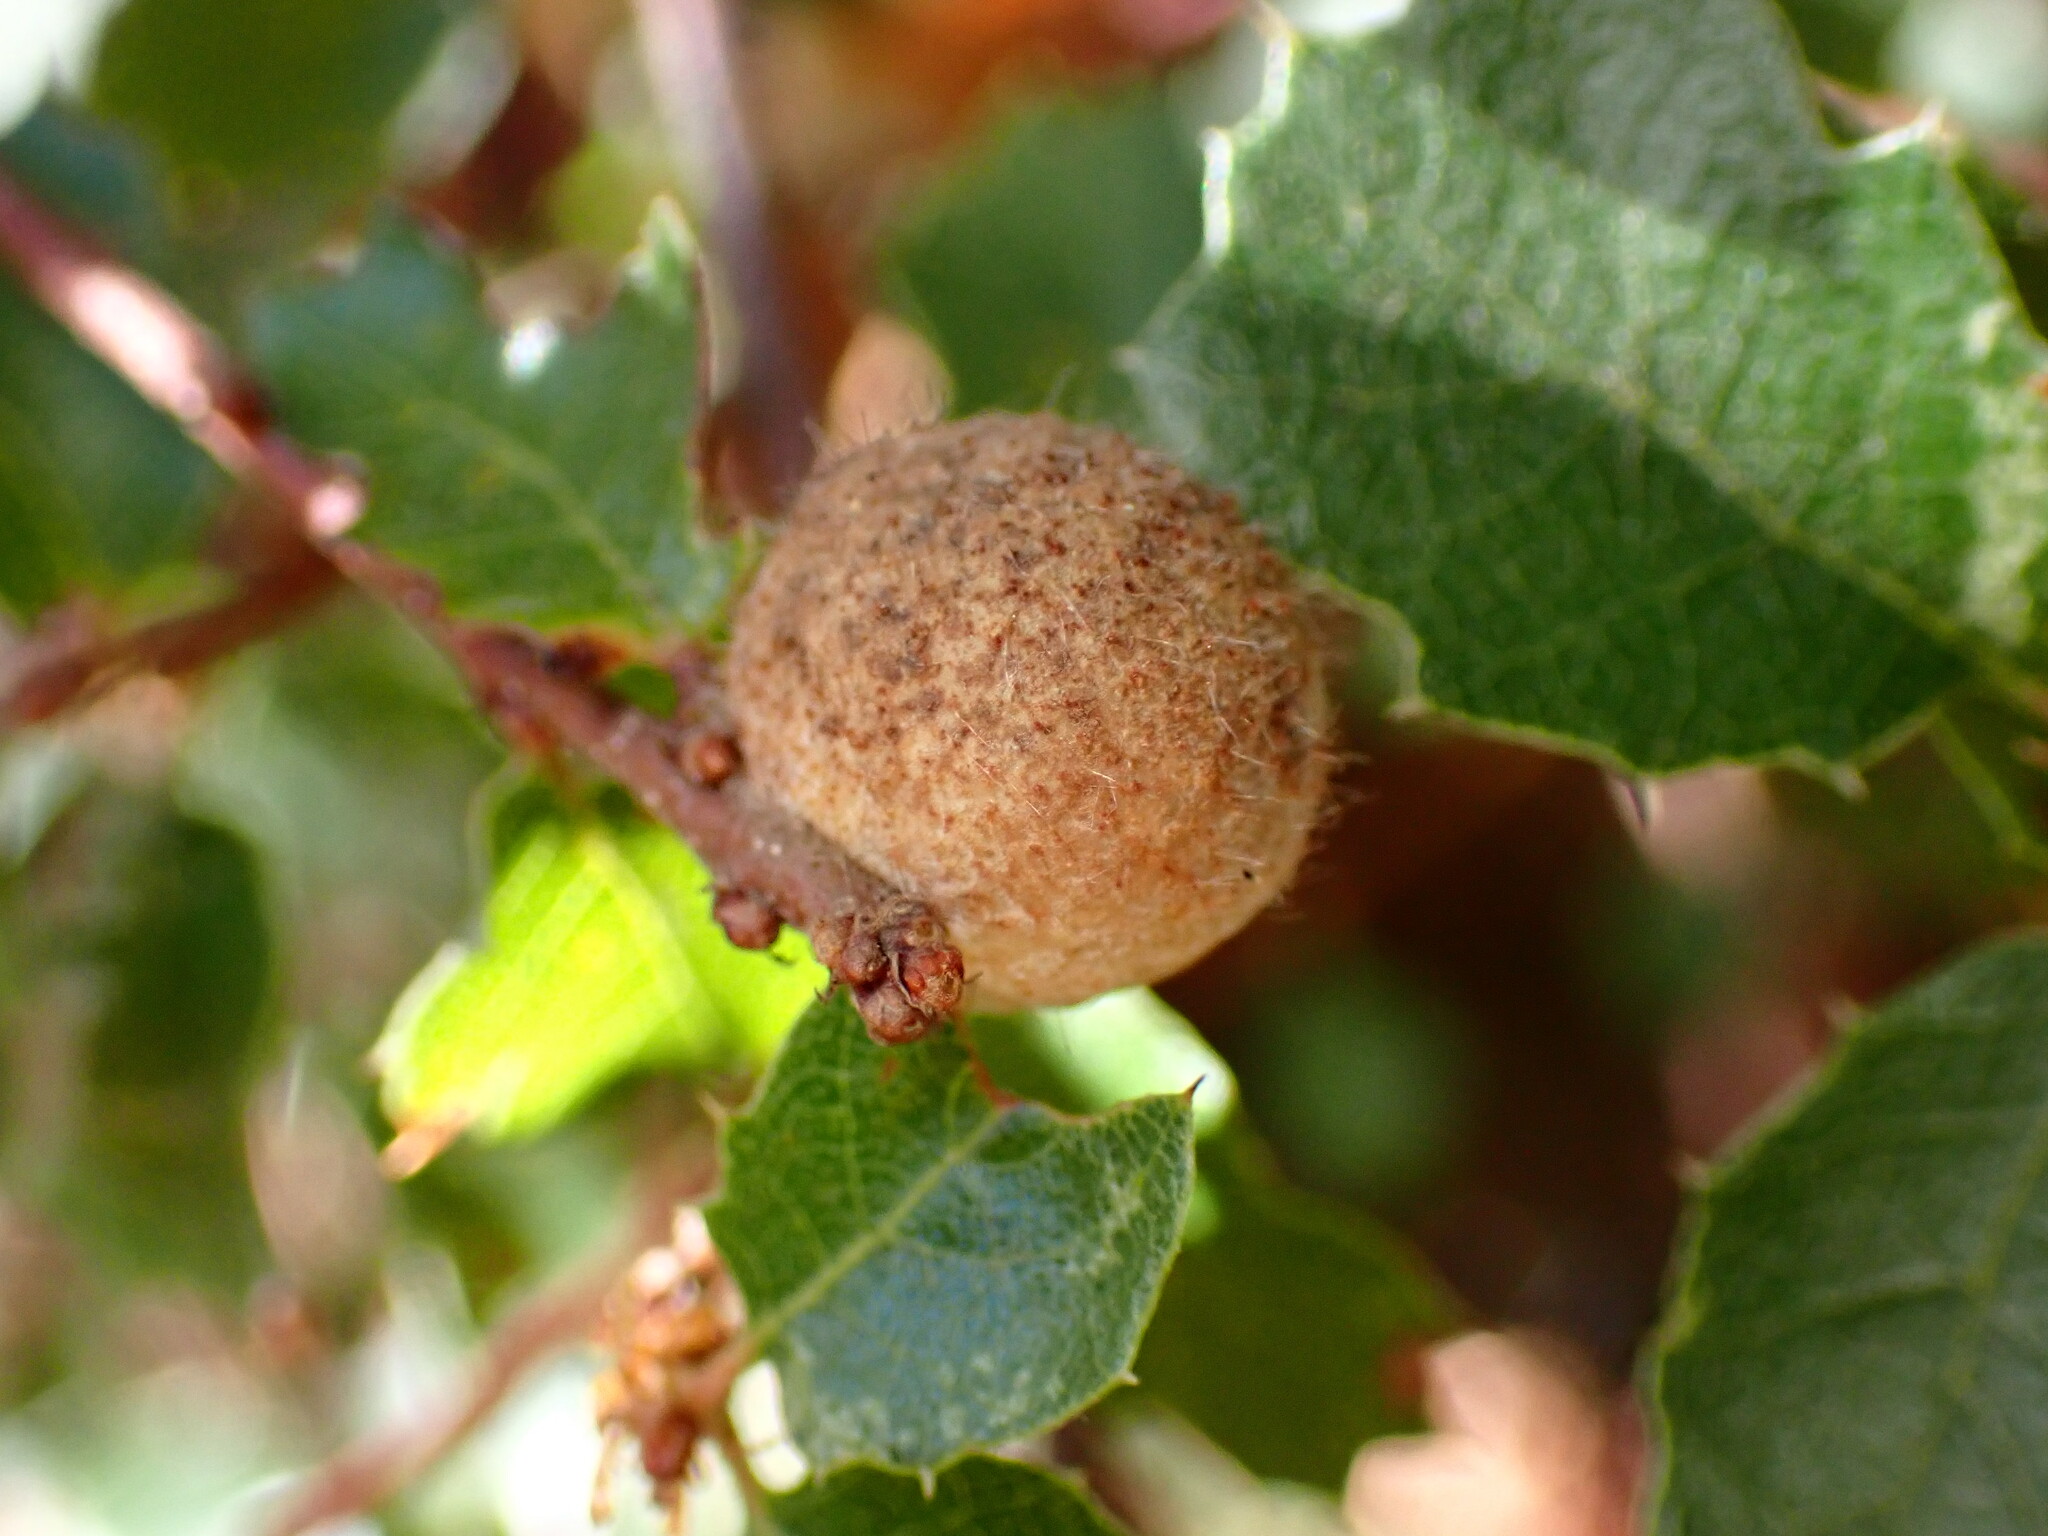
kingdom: Animalia
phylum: Arthropoda
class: Insecta
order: Hymenoptera
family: Cynipidae
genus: Burnettweldia
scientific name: Burnettweldia
